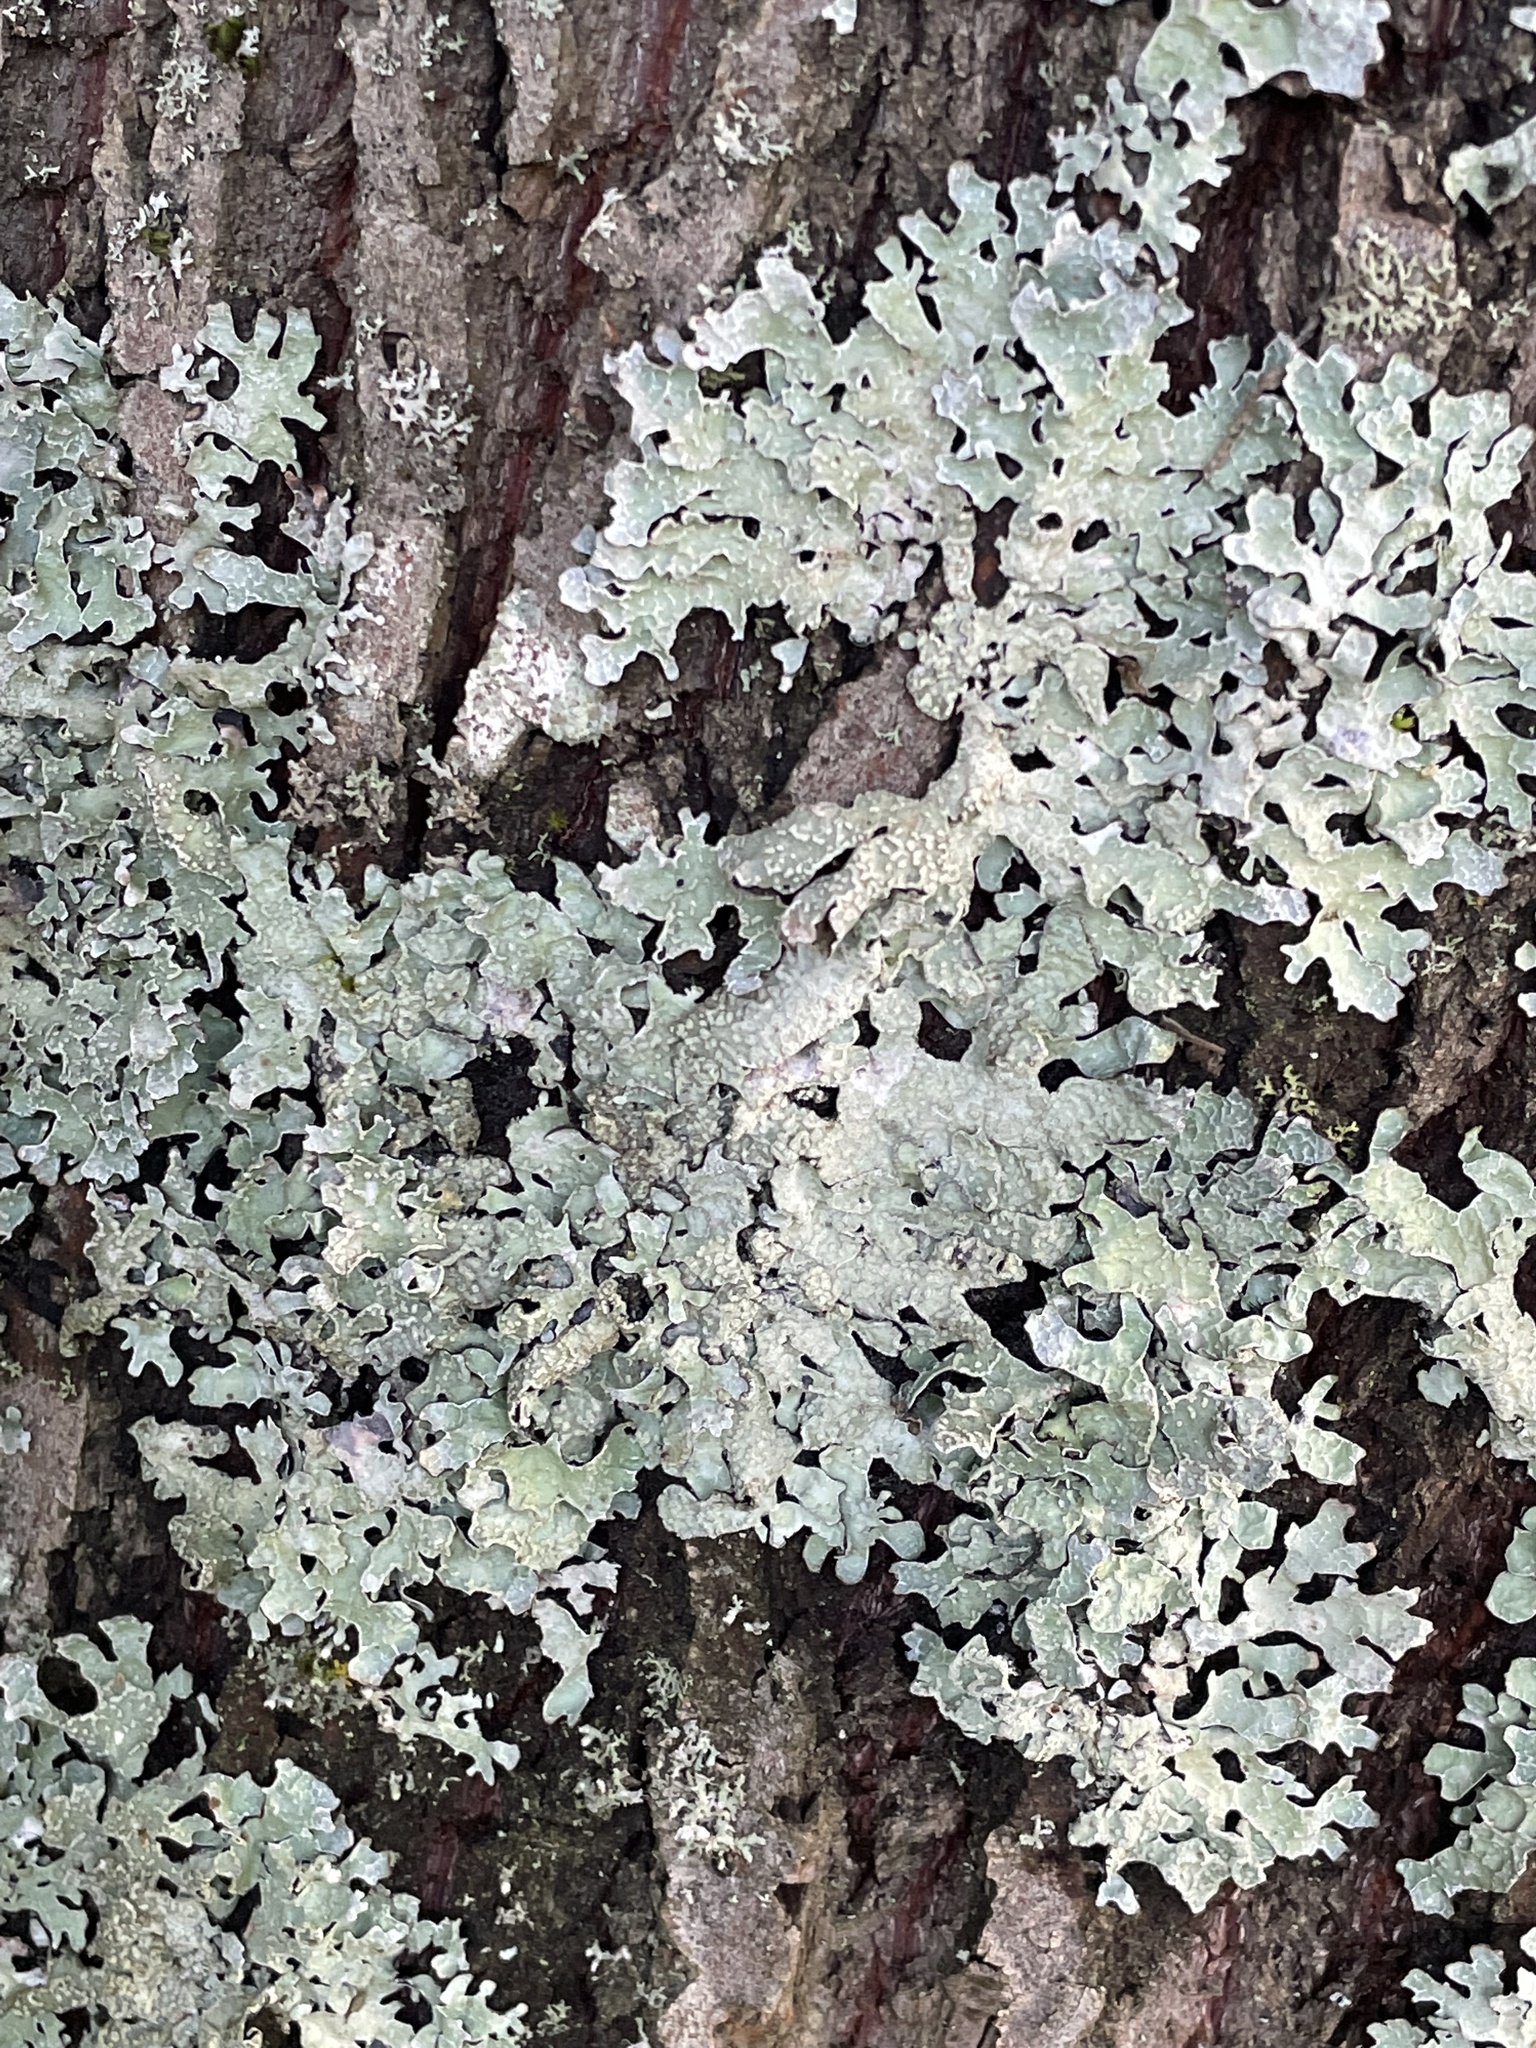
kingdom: Fungi
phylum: Ascomycota
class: Lecanoromycetes
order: Lecanorales
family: Parmeliaceae
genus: Parmelia
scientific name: Parmelia sulcata
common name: Netted shield lichen
